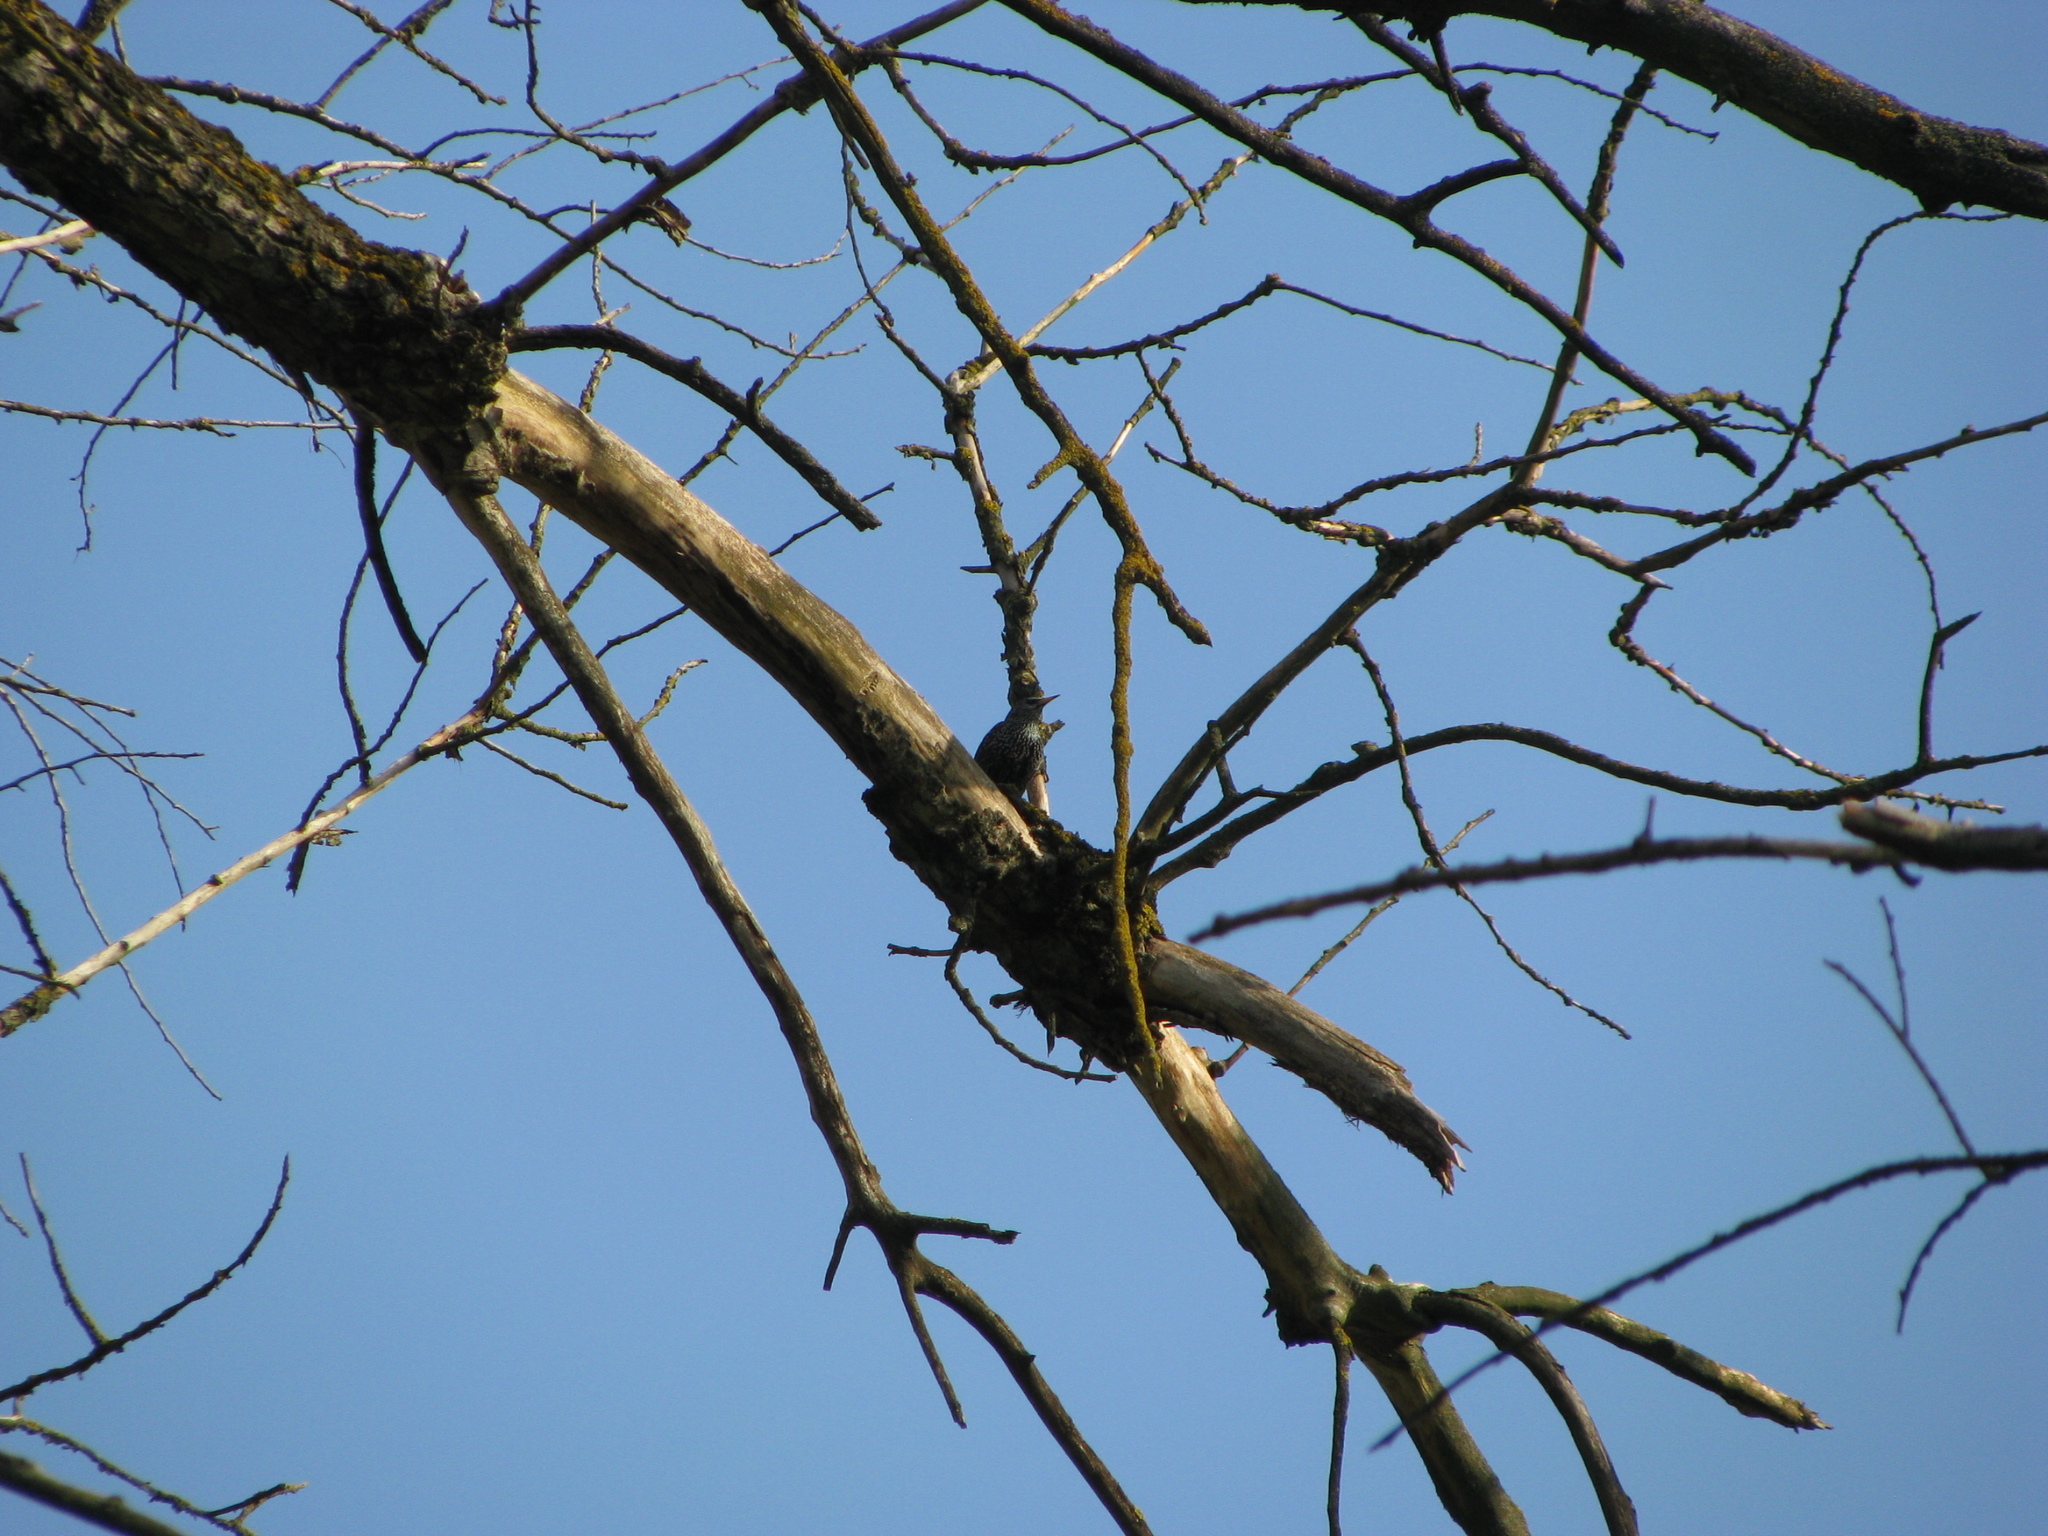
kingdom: Animalia
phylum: Chordata
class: Aves
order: Passeriformes
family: Sturnidae
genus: Sturnus
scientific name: Sturnus vulgaris
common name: Common starling
